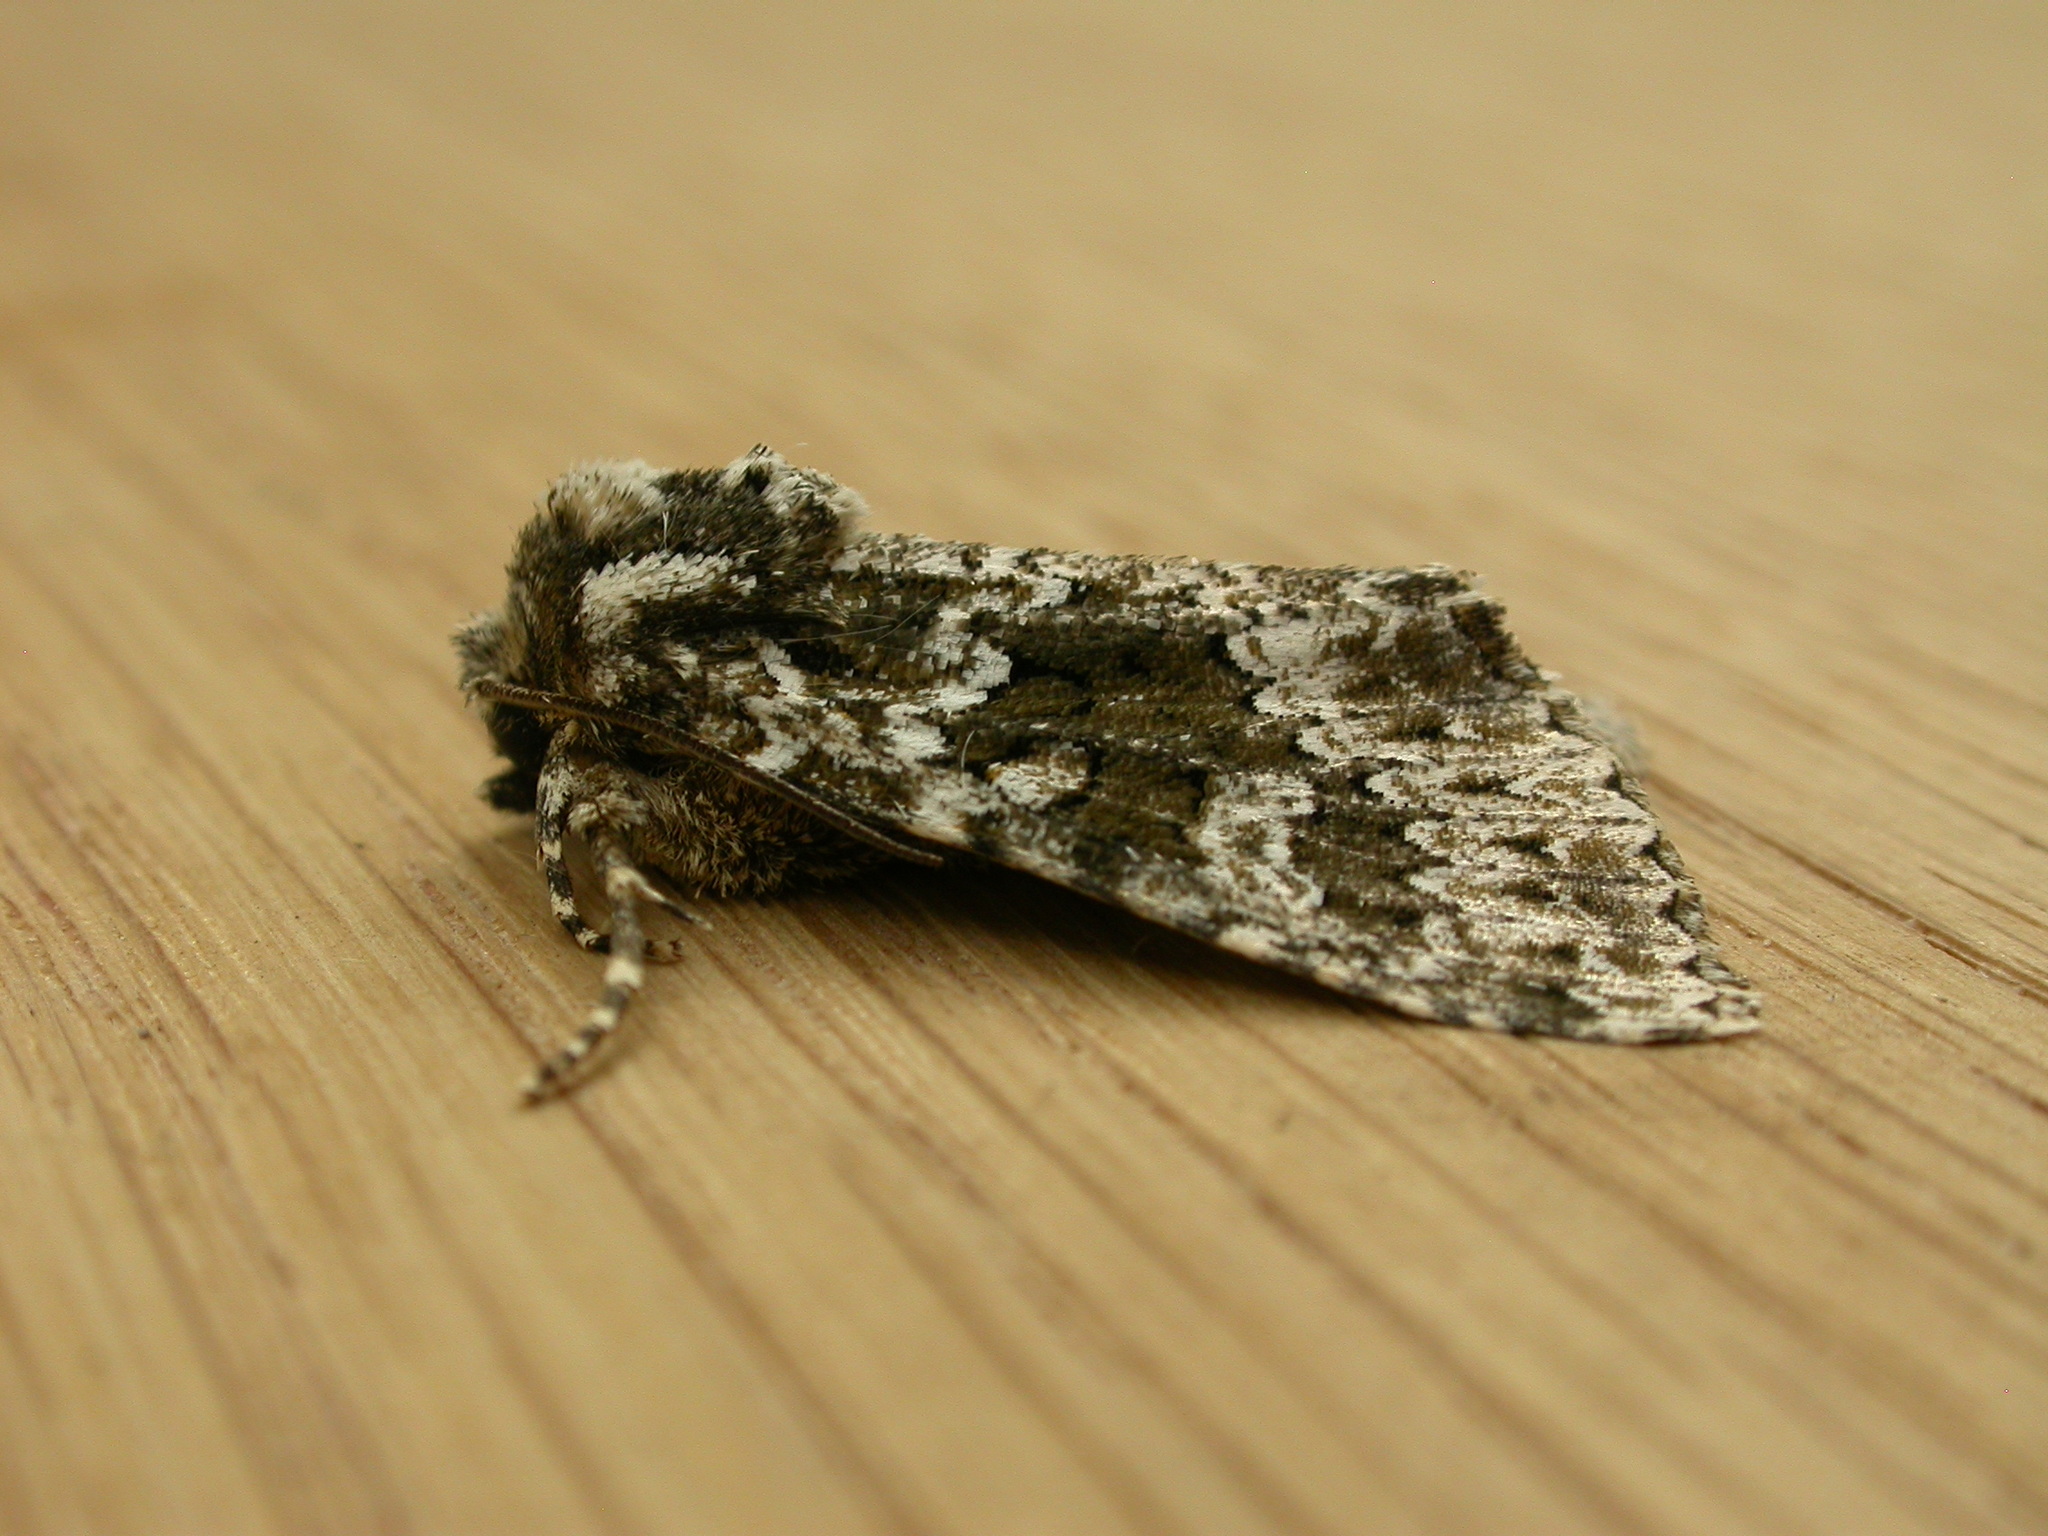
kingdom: Animalia
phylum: Arthropoda
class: Insecta
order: Lepidoptera
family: Noctuidae
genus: Polymixis
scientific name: Polymixis polymita
